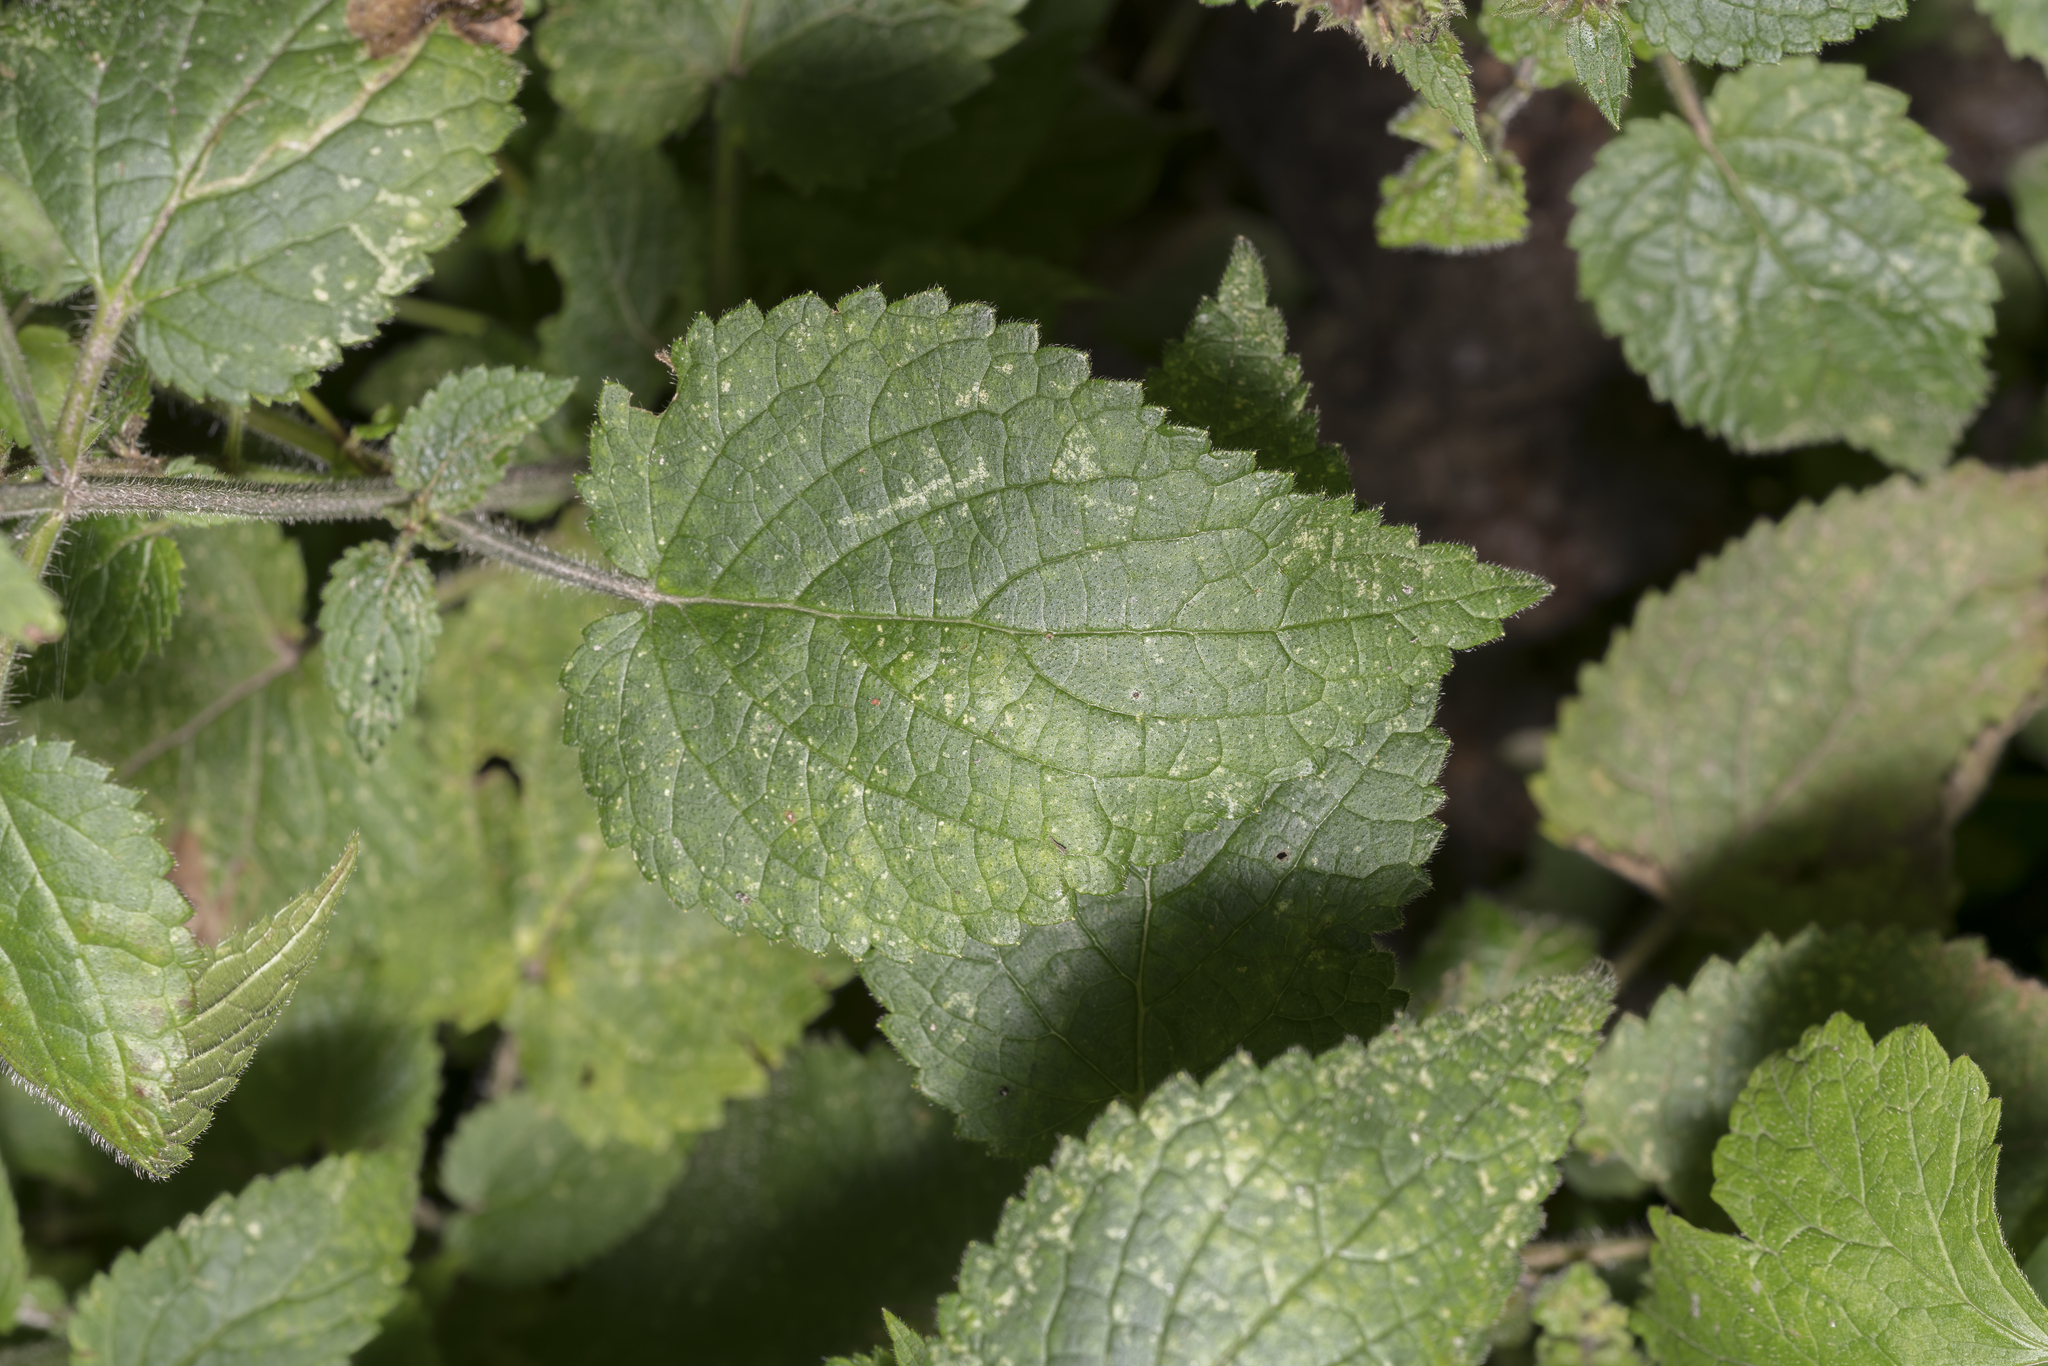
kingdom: Plantae
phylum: Tracheophyta
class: Magnoliopsida
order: Lamiales
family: Lamiaceae
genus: Stachys
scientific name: Stachys sylvatica
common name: Hedge woundwort
